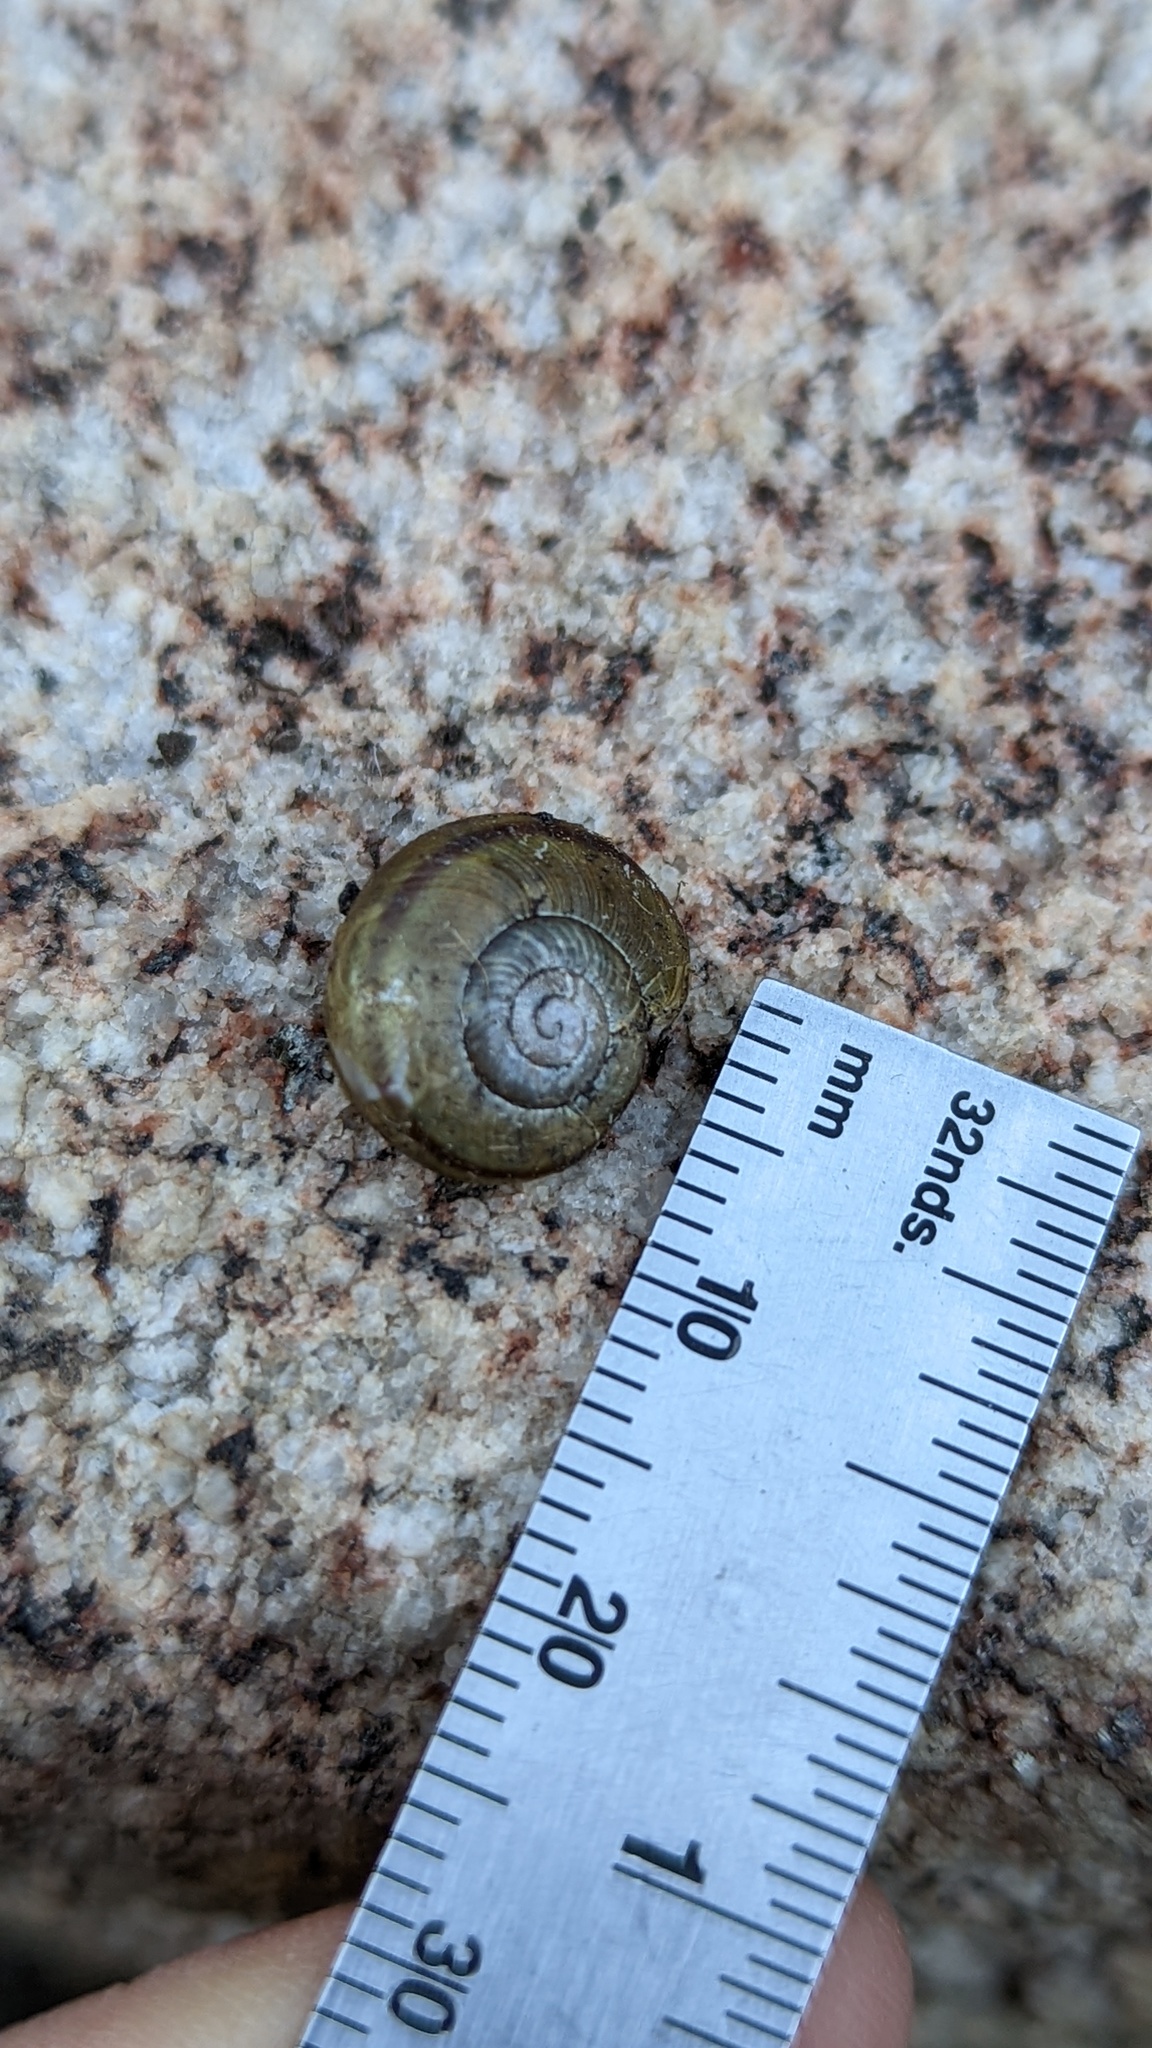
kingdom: Animalia
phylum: Mollusca
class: Gastropoda
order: Stylommatophora
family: Xanthonychidae
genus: Helminthoglypta
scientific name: Helminthoglypta traskii
